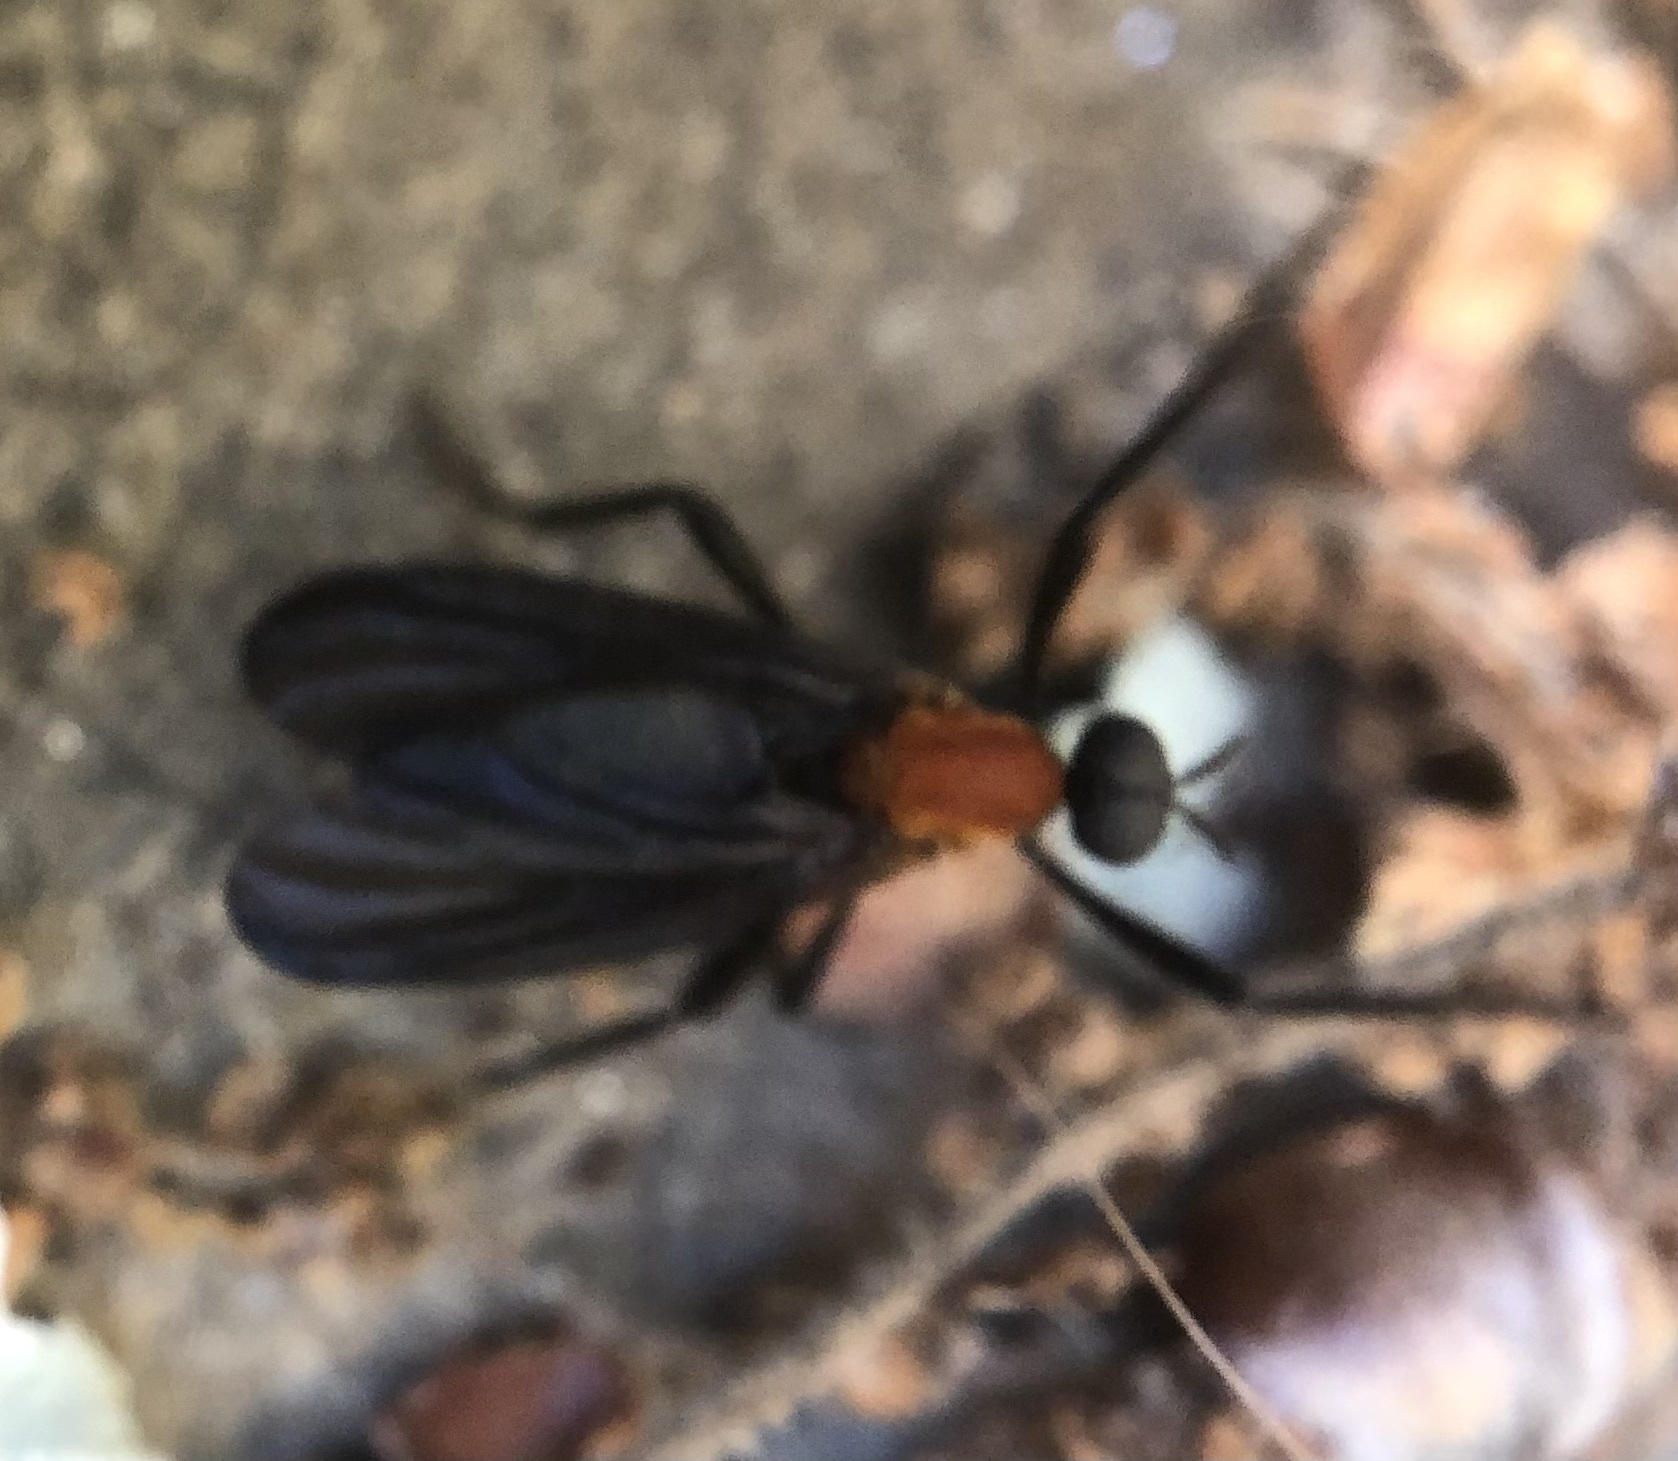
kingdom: Animalia
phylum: Arthropoda
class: Insecta
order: Diptera
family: Bibionidae
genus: Plecia
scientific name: Plecia americana
